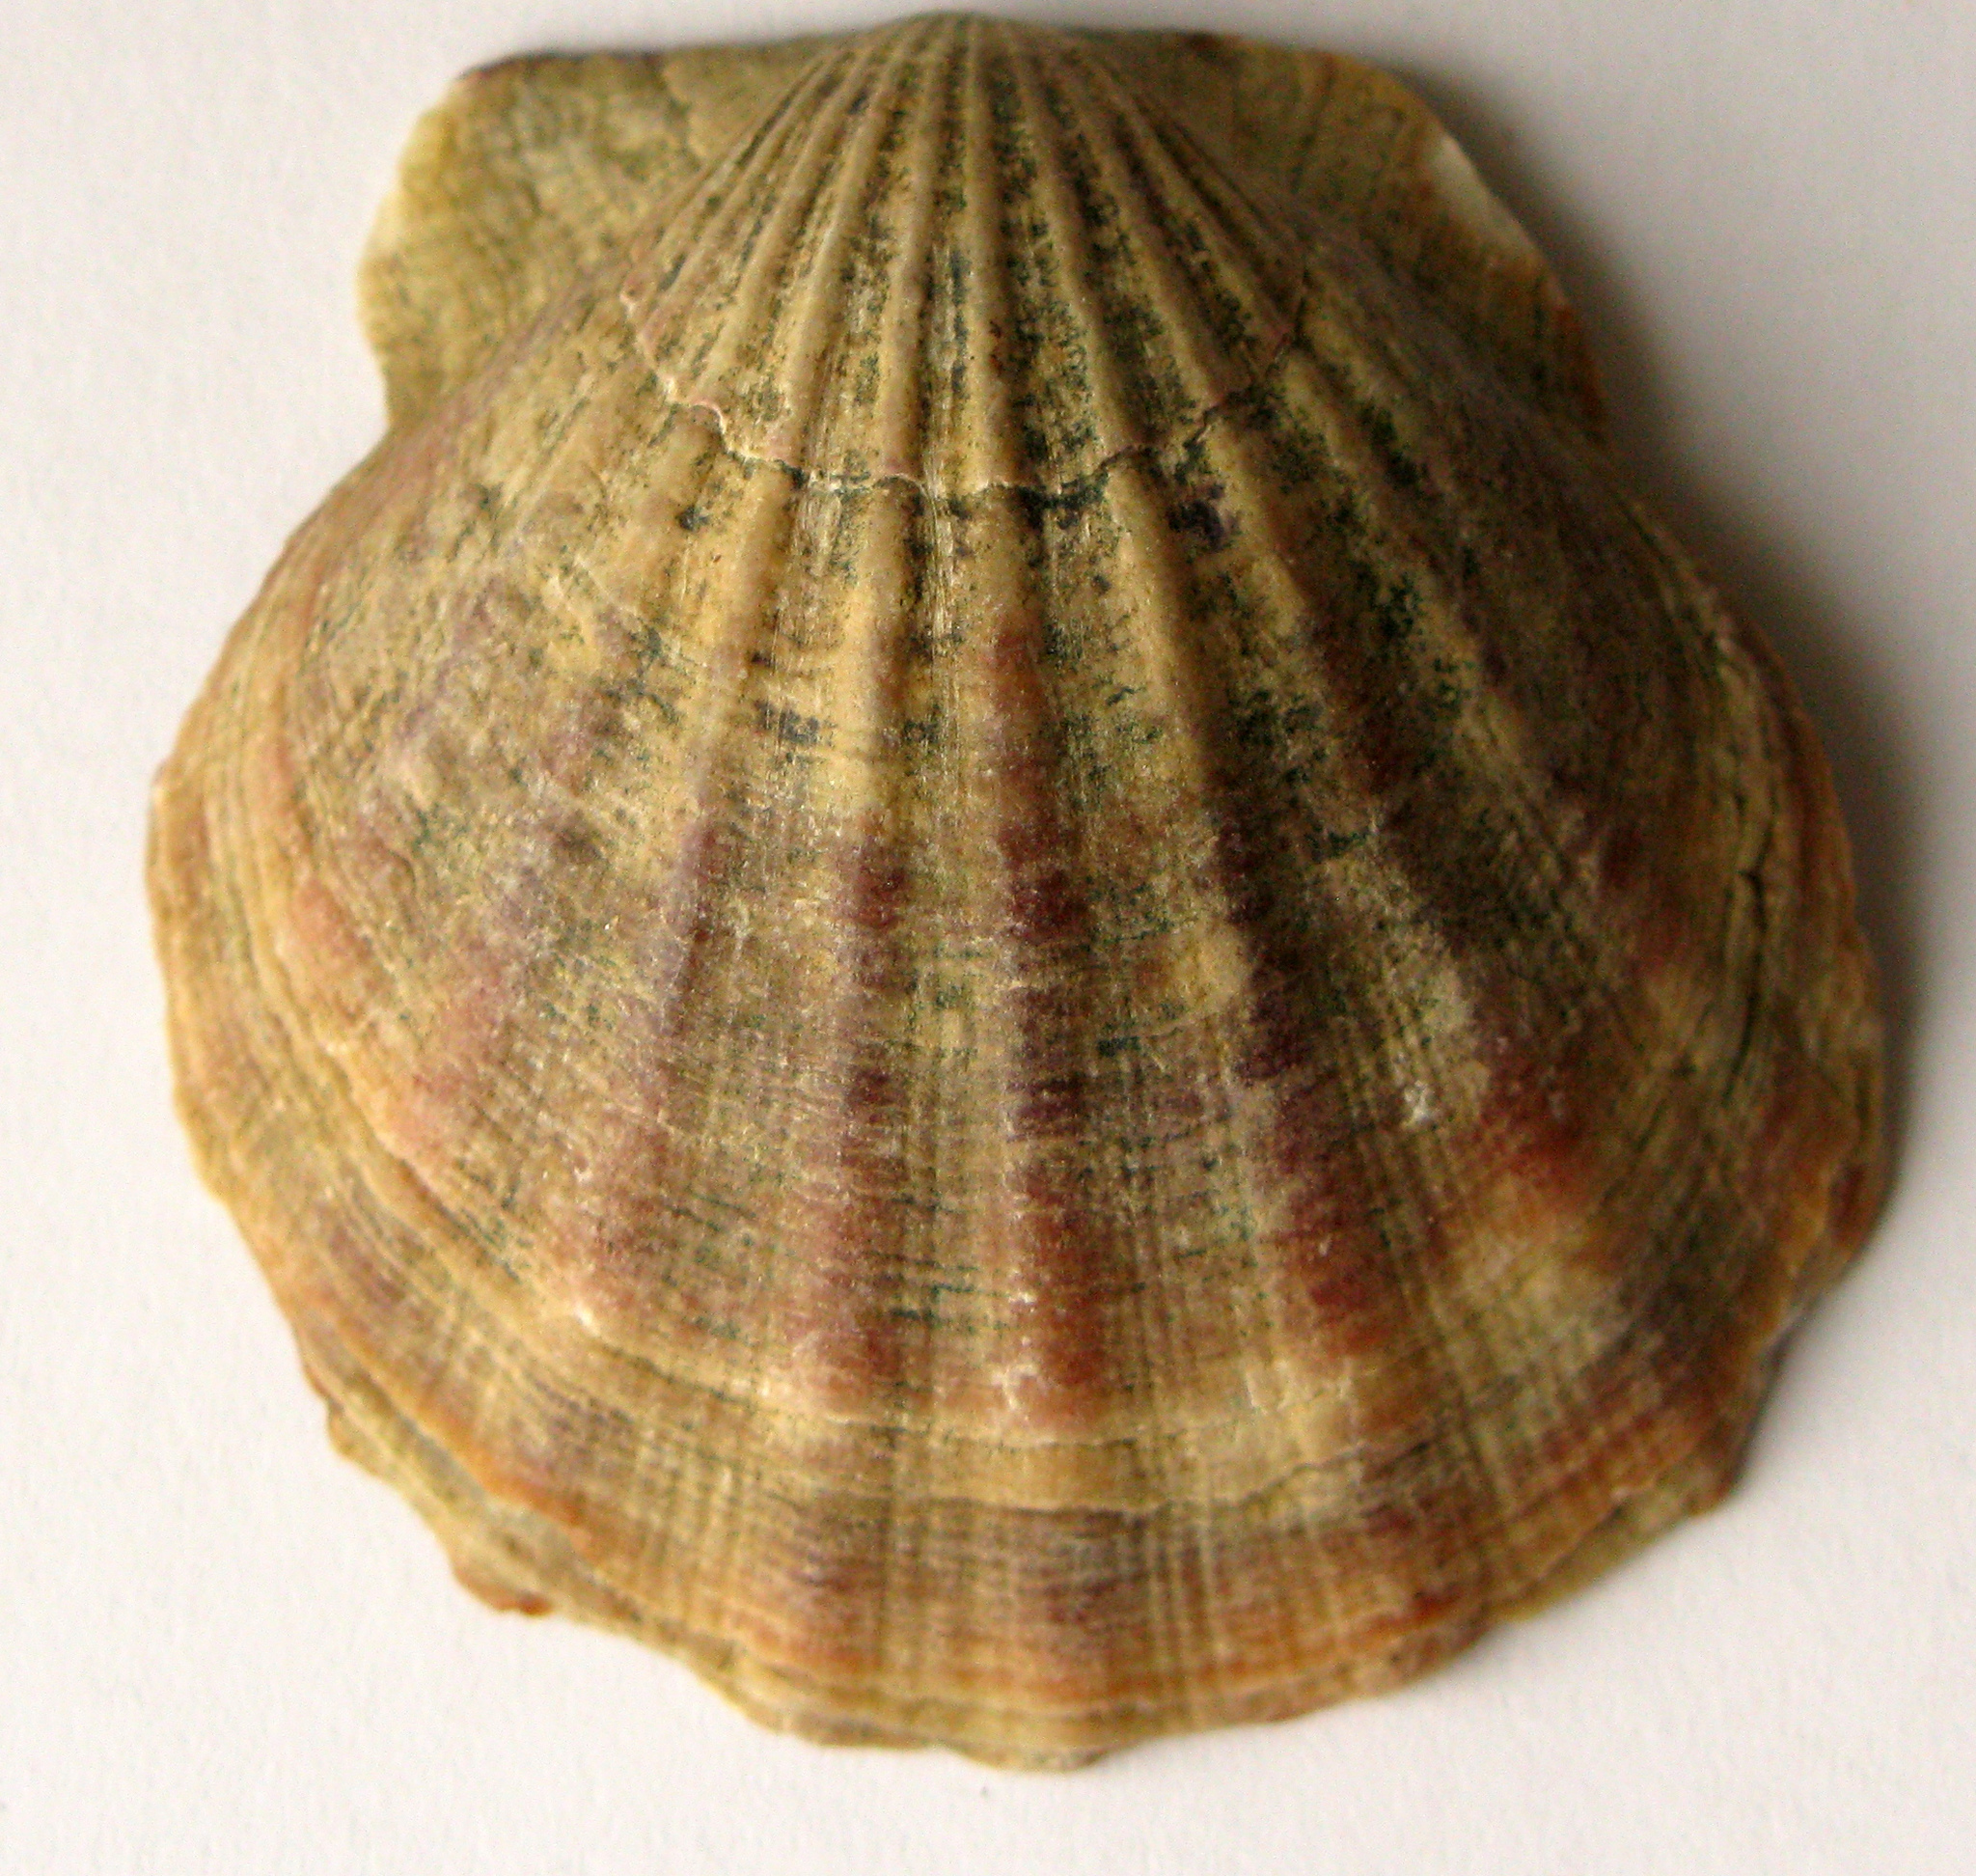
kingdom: Animalia
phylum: Mollusca
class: Bivalvia
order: Pectinida
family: Pectinidae
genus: Flexopecten
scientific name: Flexopecten glaber
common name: Smooth scallop
